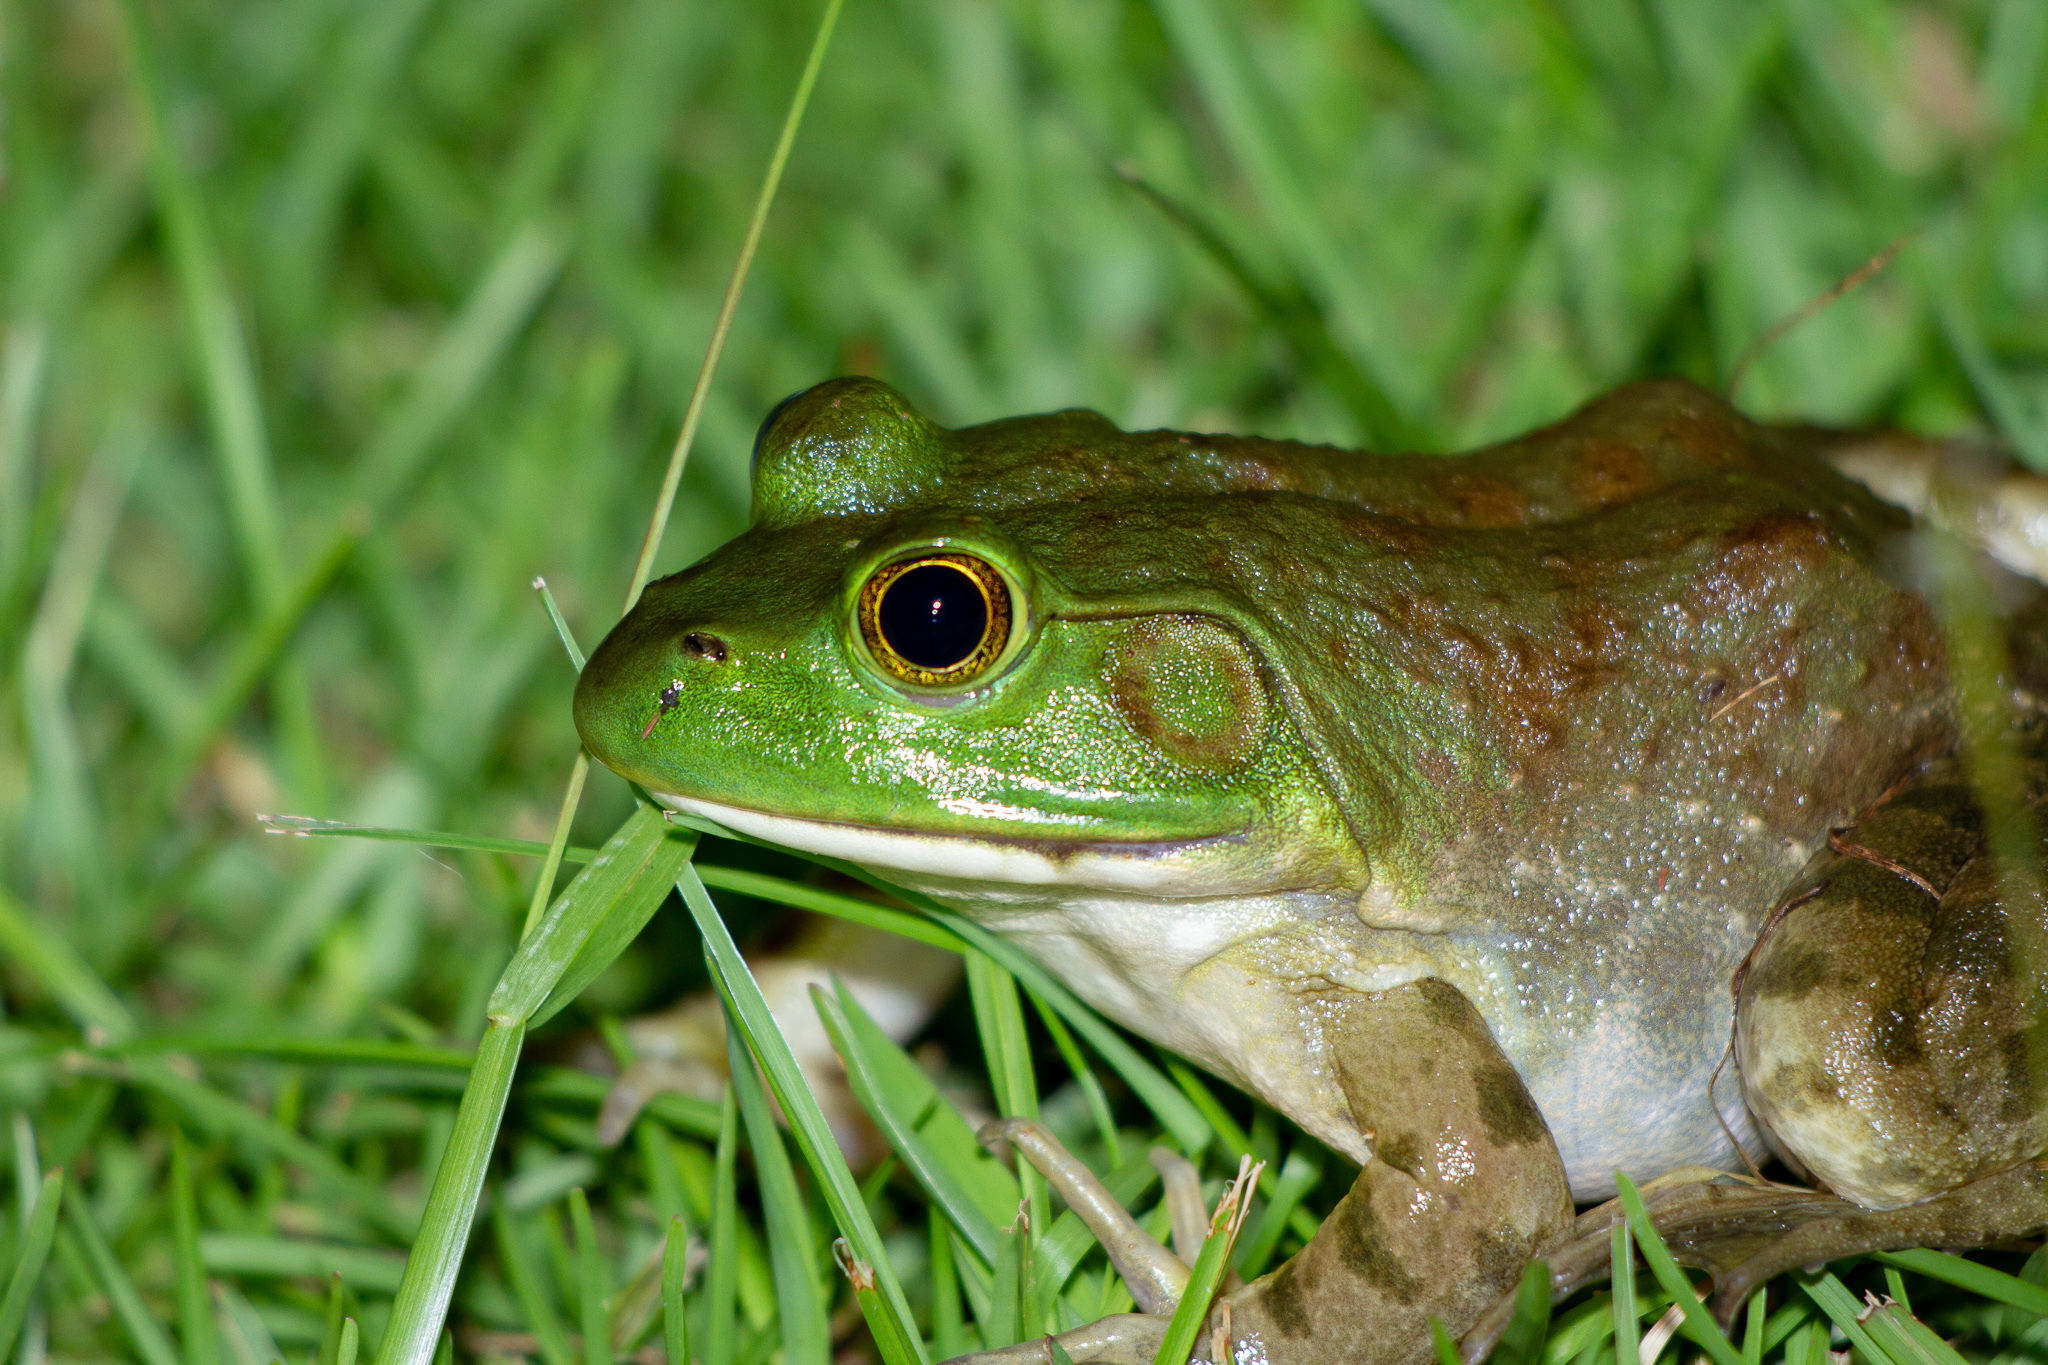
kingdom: Animalia
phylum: Chordata
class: Amphibia
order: Anura
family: Ranidae
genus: Lithobates
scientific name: Lithobates catesbeianus
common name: American bullfrog
